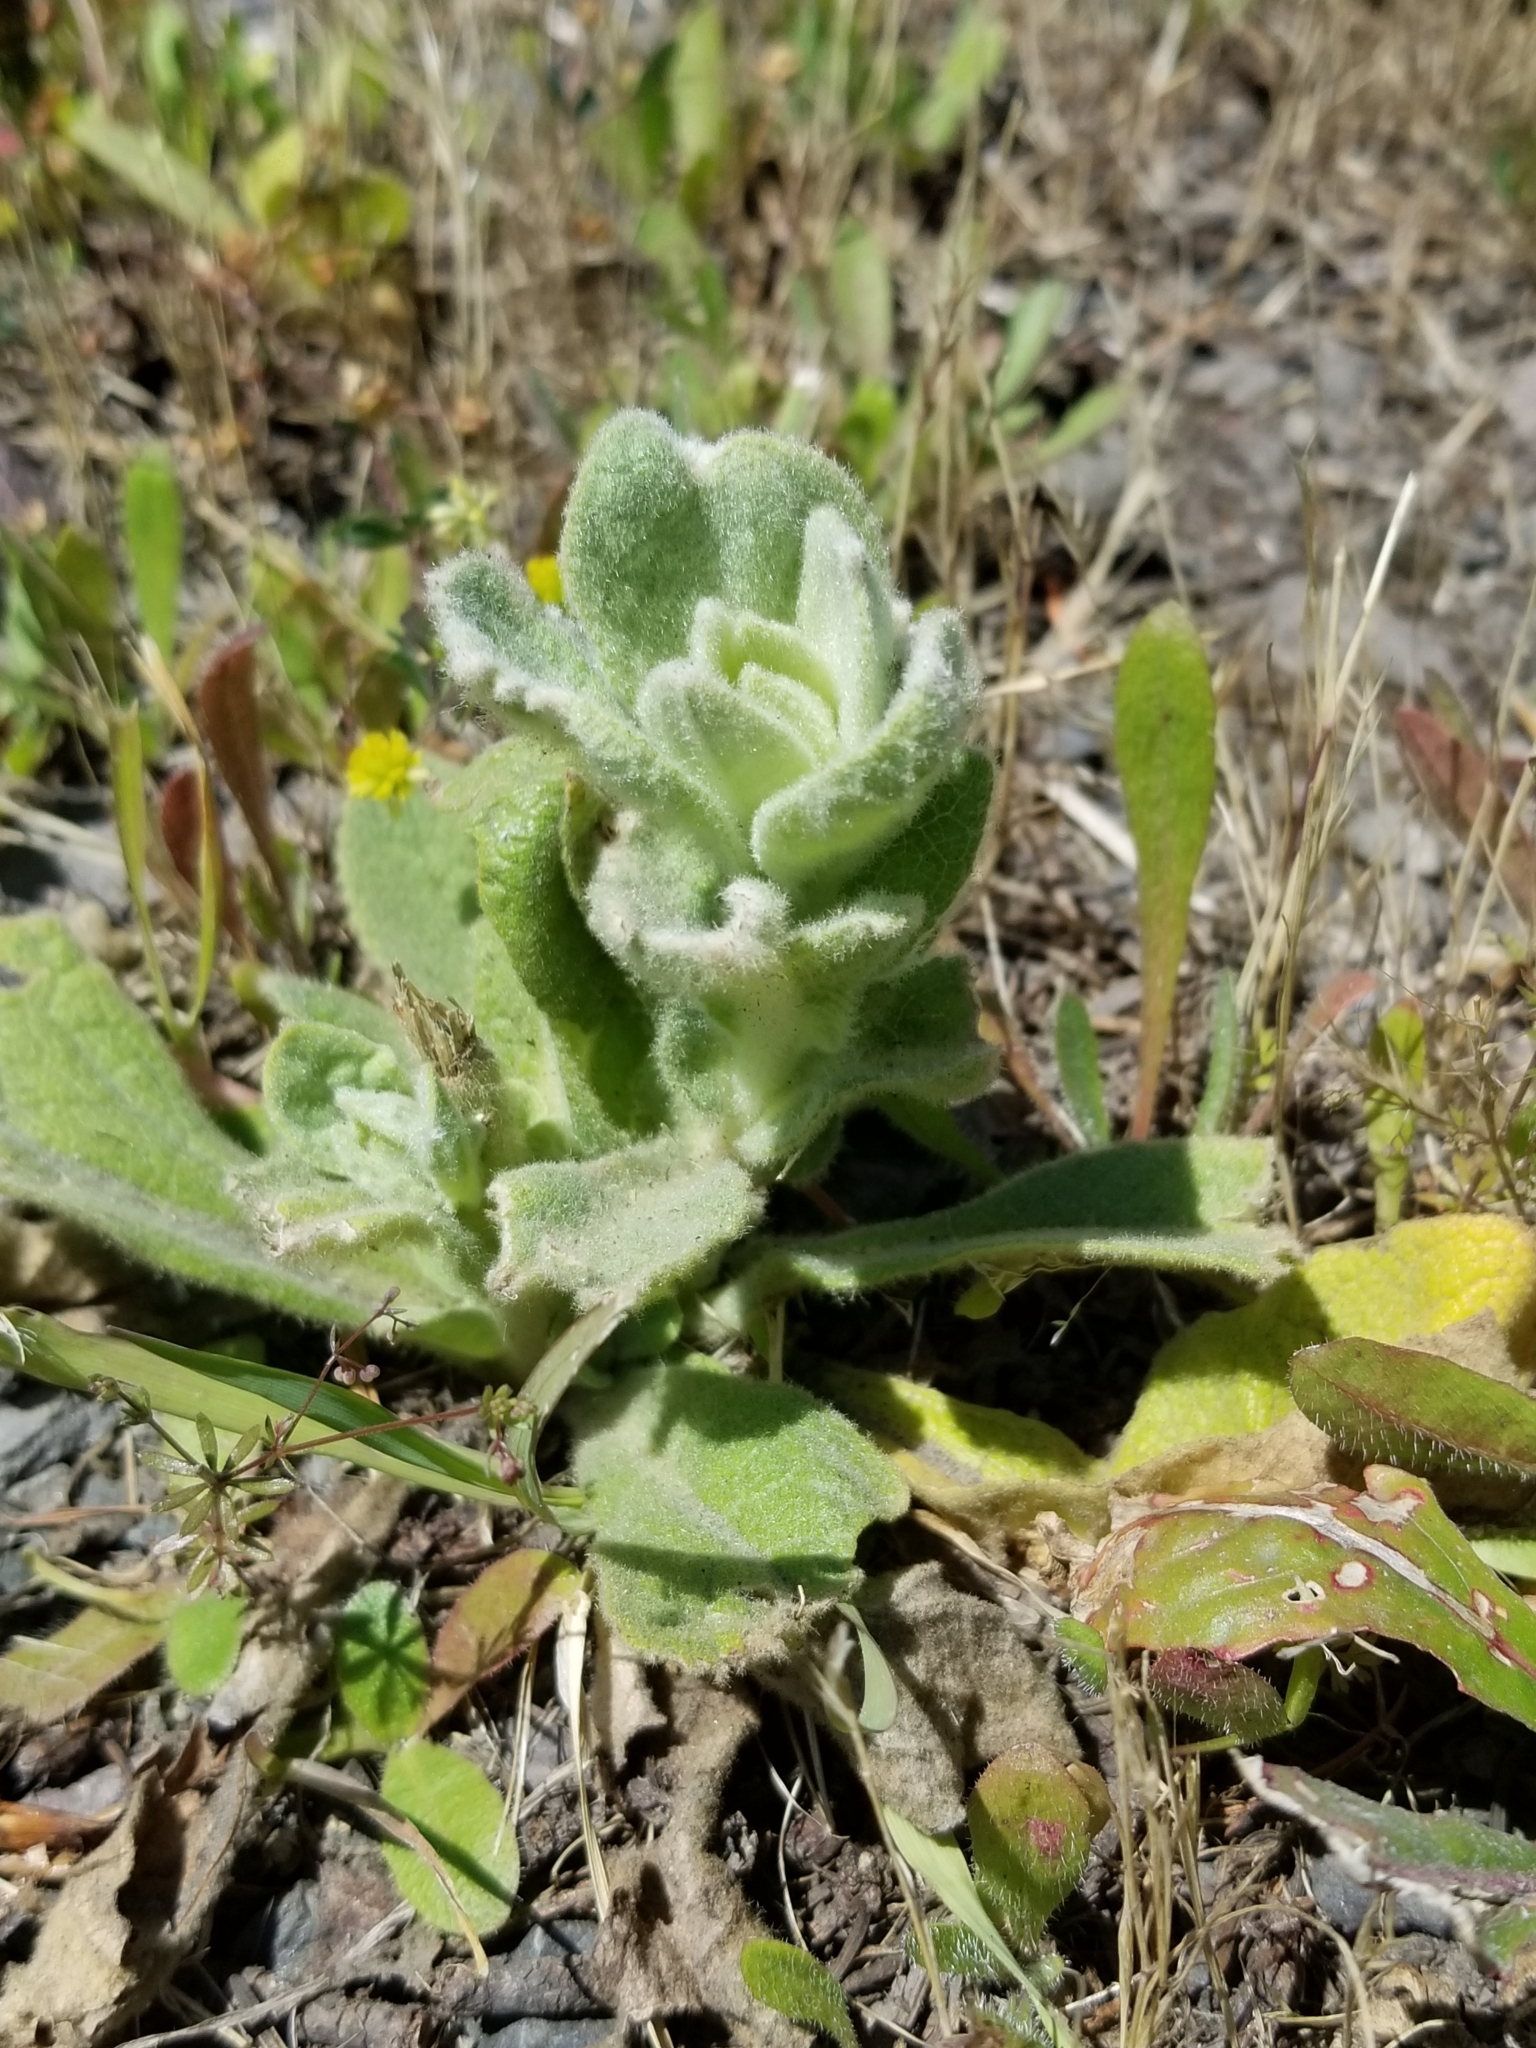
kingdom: Plantae
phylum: Tracheophyta
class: Magnoliopsida
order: Lamiales
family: Scrophulariaceae
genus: Verbascum
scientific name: Verbascum thapsus
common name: Common mullein
